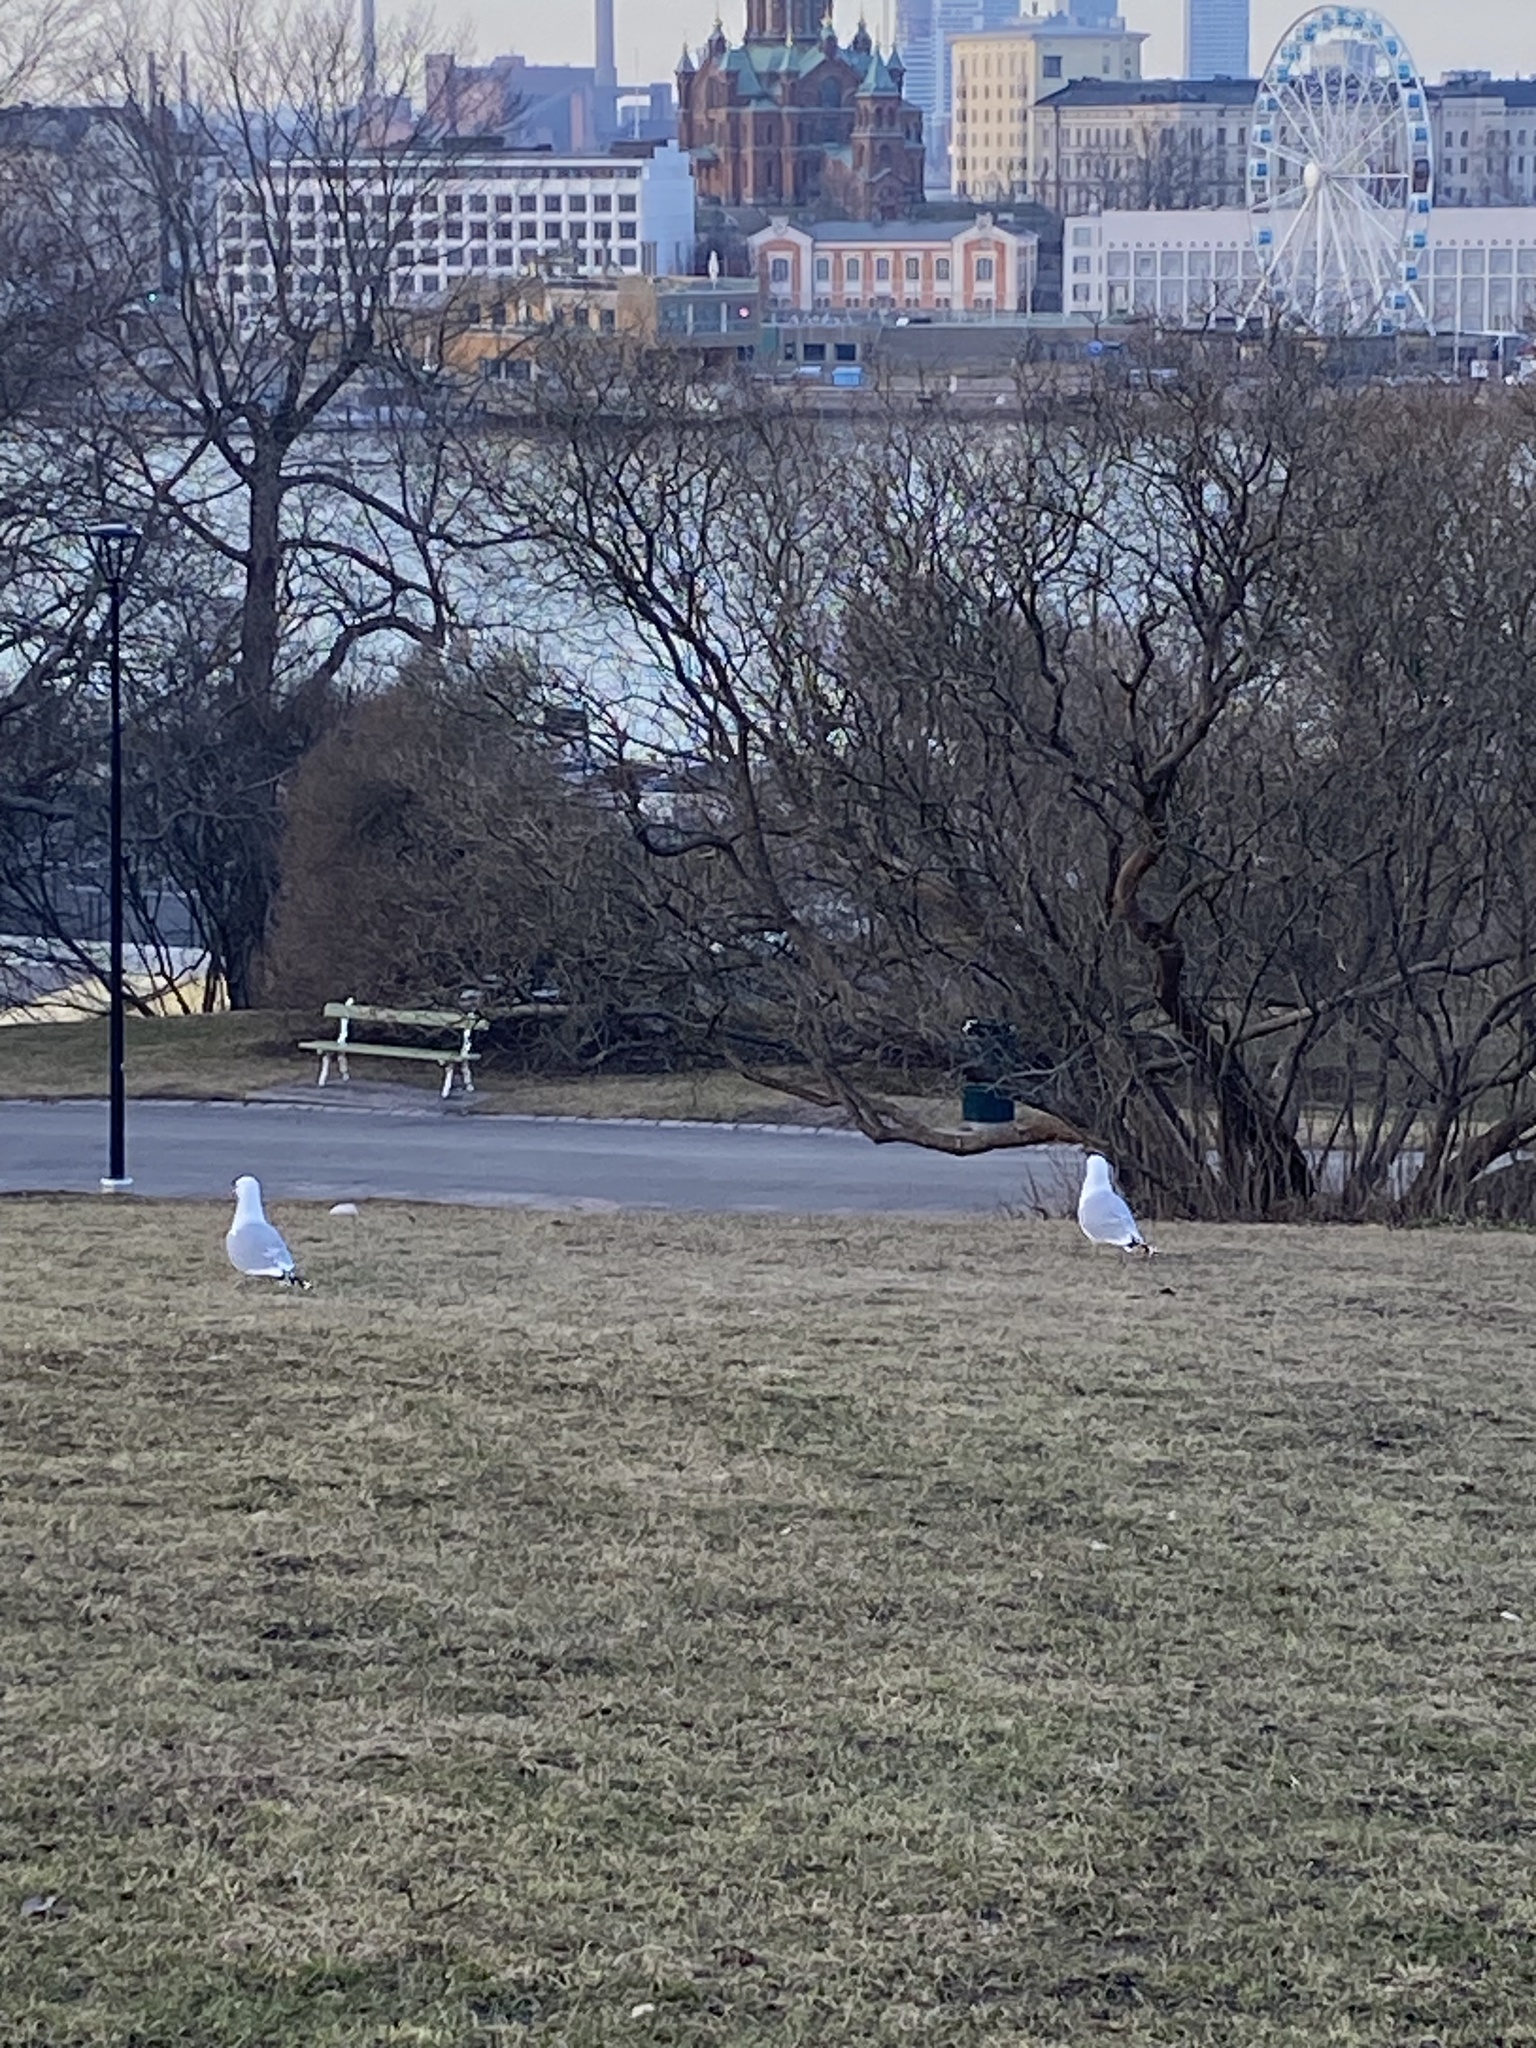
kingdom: Animalia
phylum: Chordata
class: Aves
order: Charadriiformes
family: Laridae
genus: Larus
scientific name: Larus canus
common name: Mew gull
